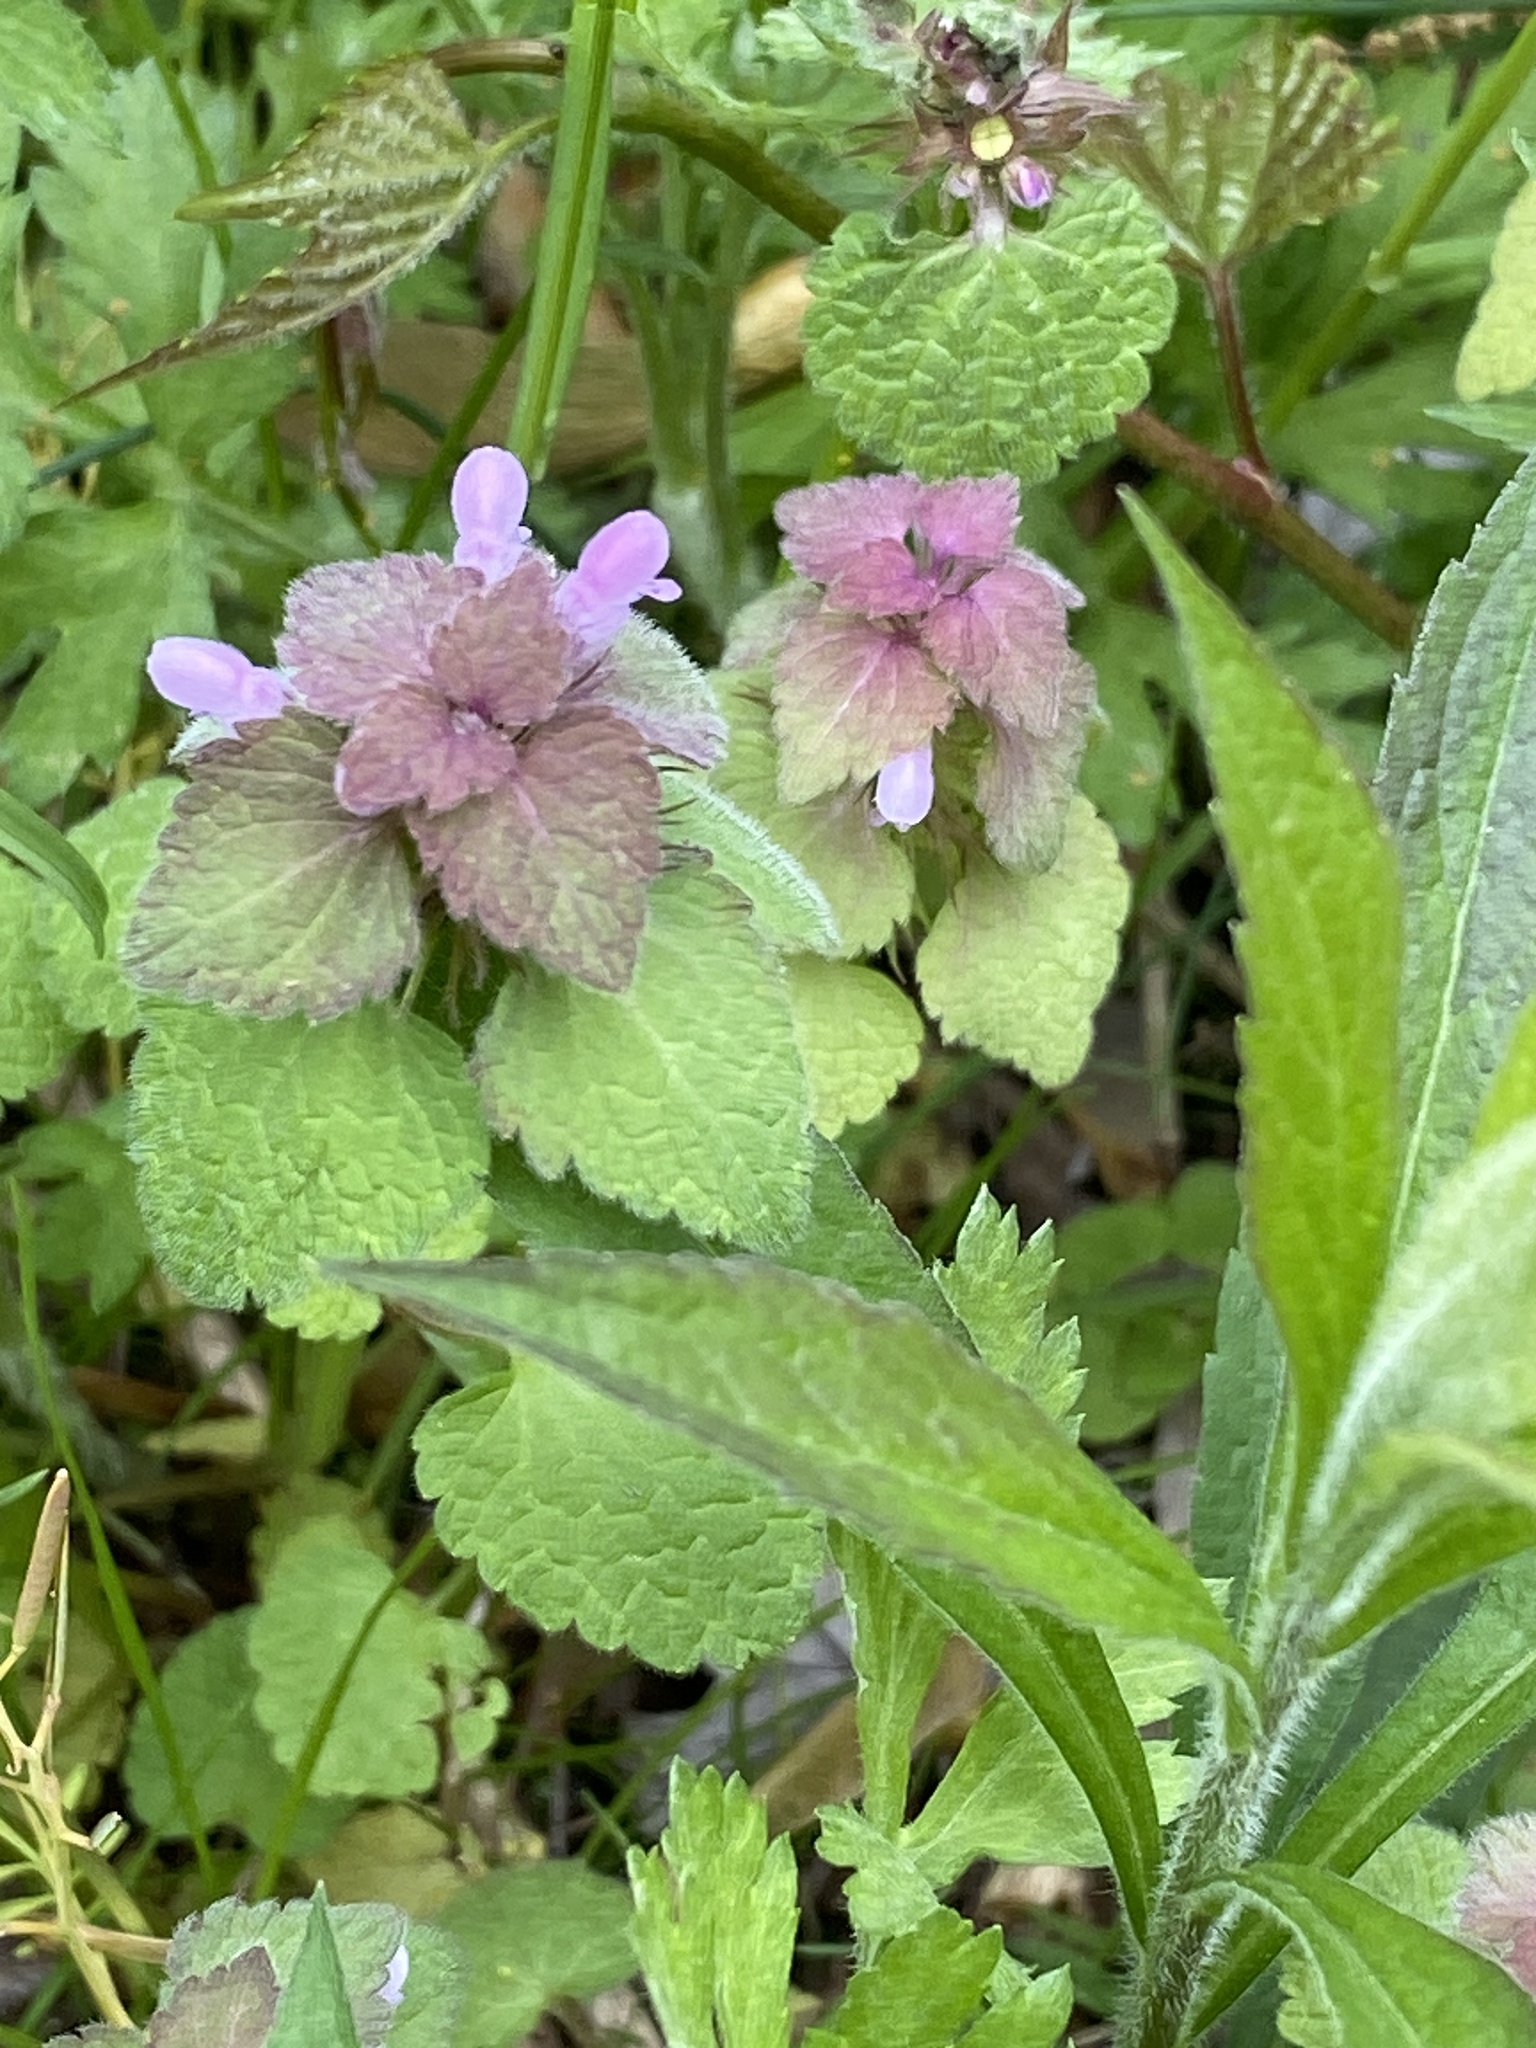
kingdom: Plantae
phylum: Tracheophyta
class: Magnoliopsida
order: Lamiales
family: Lamiaceae
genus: Lamium
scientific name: Lamium purpureum
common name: Red dead-nettle
